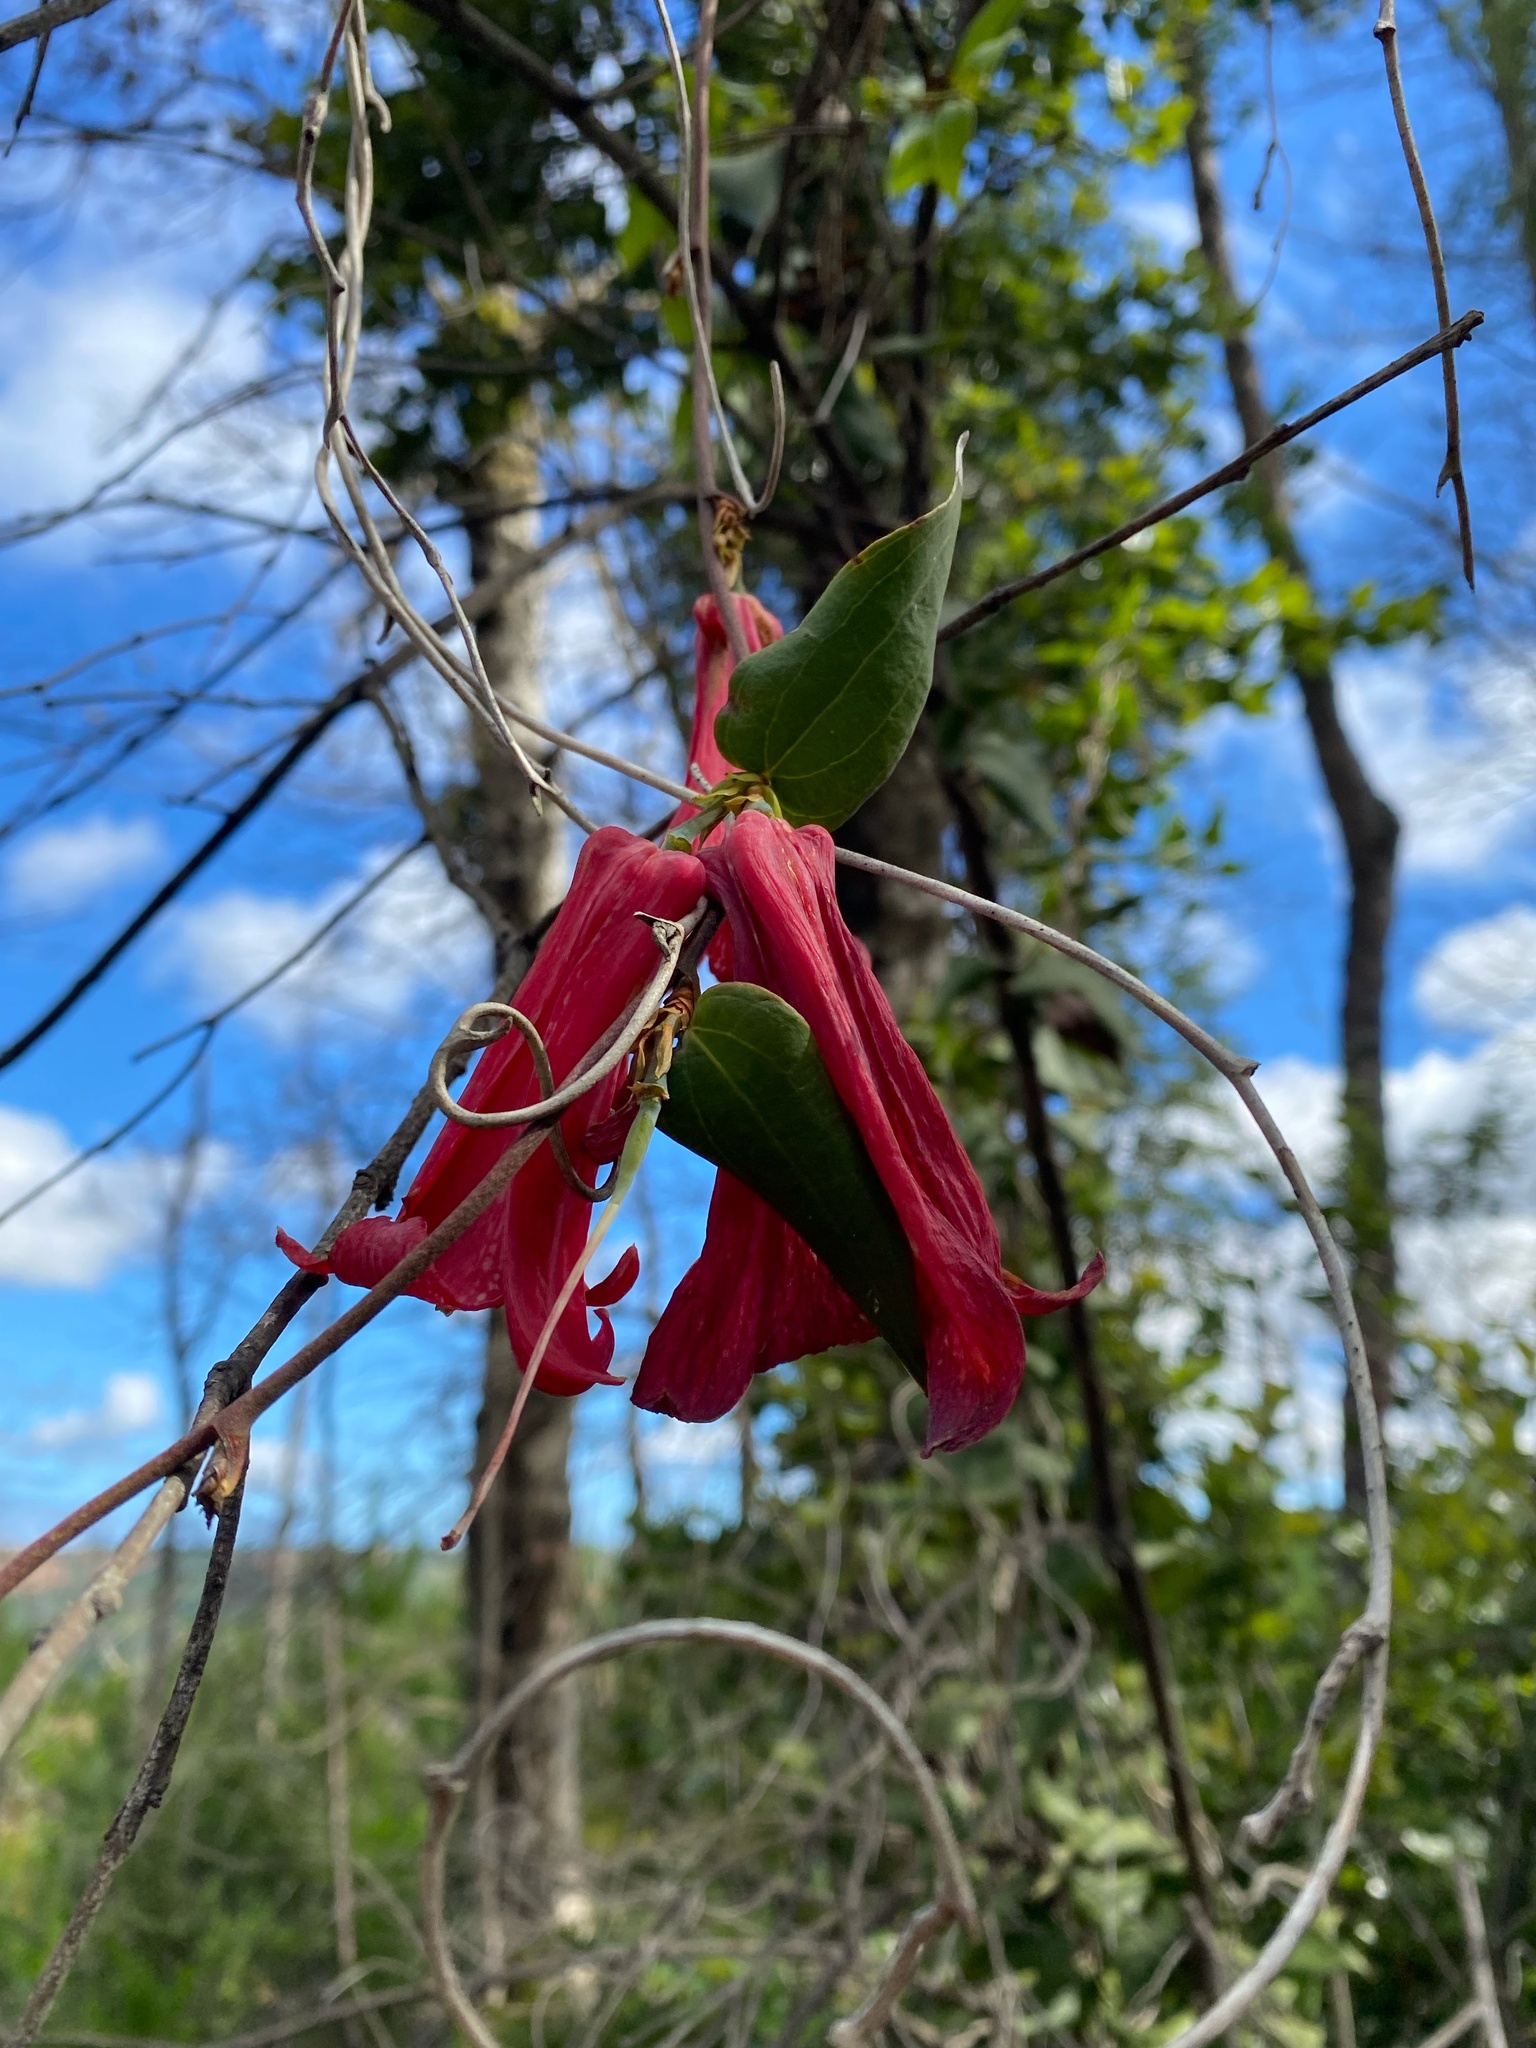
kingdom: Plantae
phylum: Tracheophyta
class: Liliopsida
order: Liliales
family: Philesiaceae
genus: Lapageria
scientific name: Lapageria rosea
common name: Chilean-bellflower
